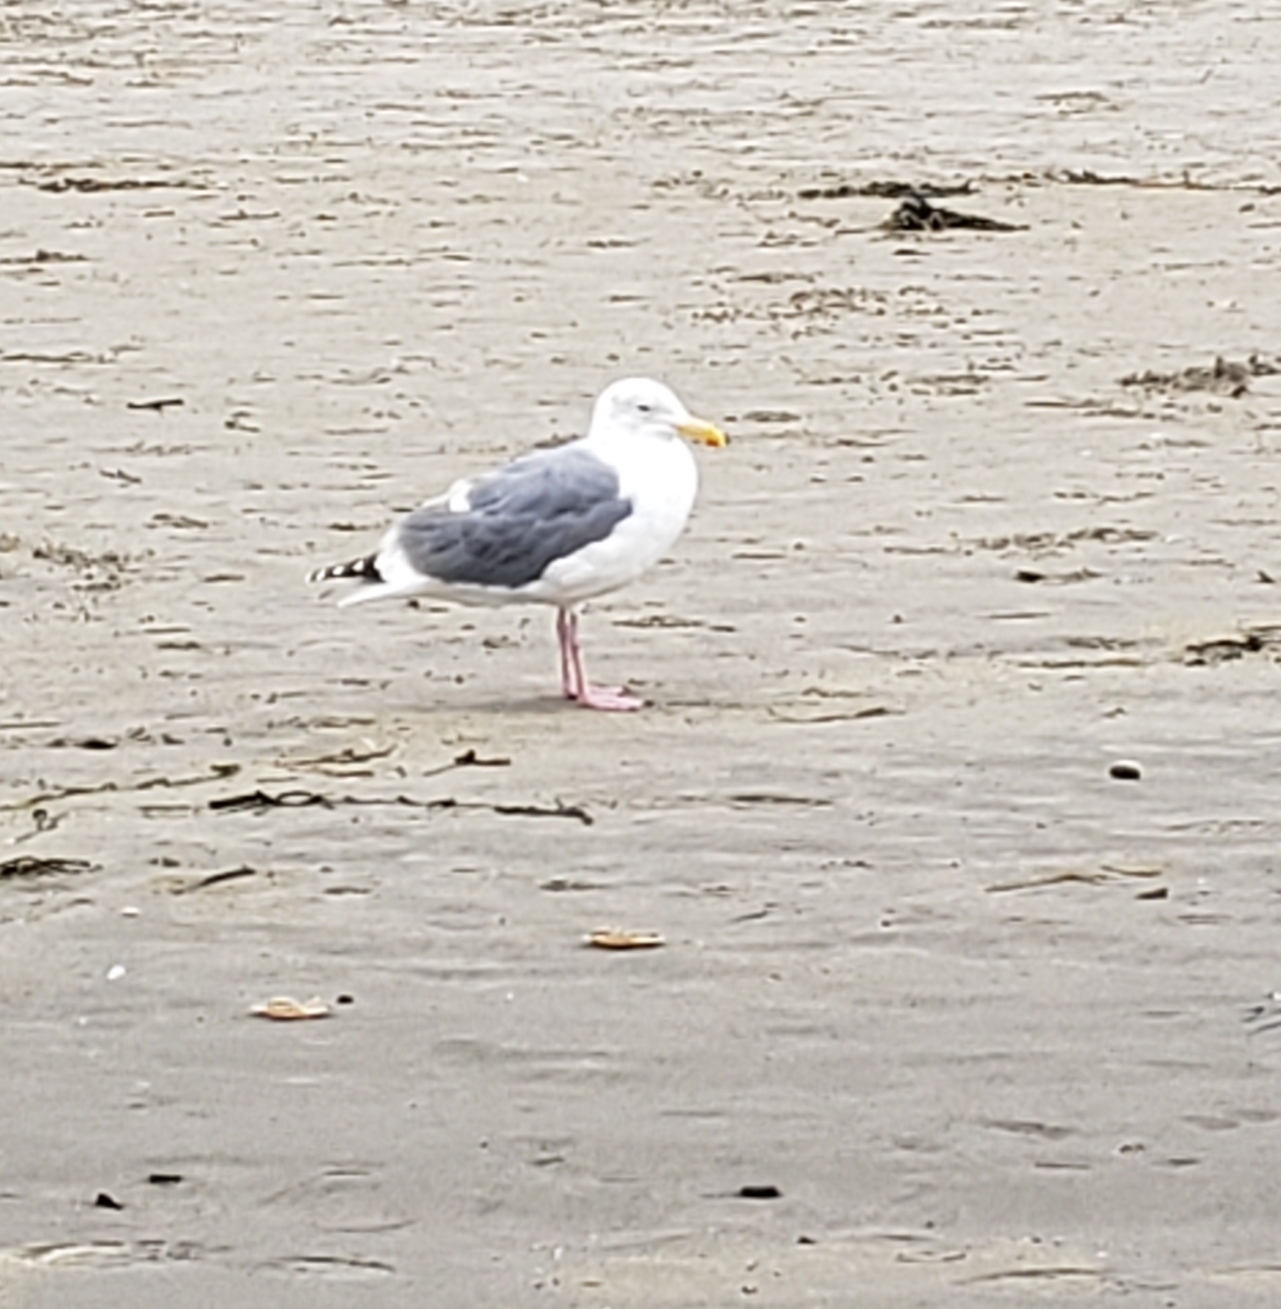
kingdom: Animalia
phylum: Chordata
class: Aves
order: Charadriiformes
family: Laridae
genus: Larus
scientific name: Larus occidentalis
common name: Western gull
